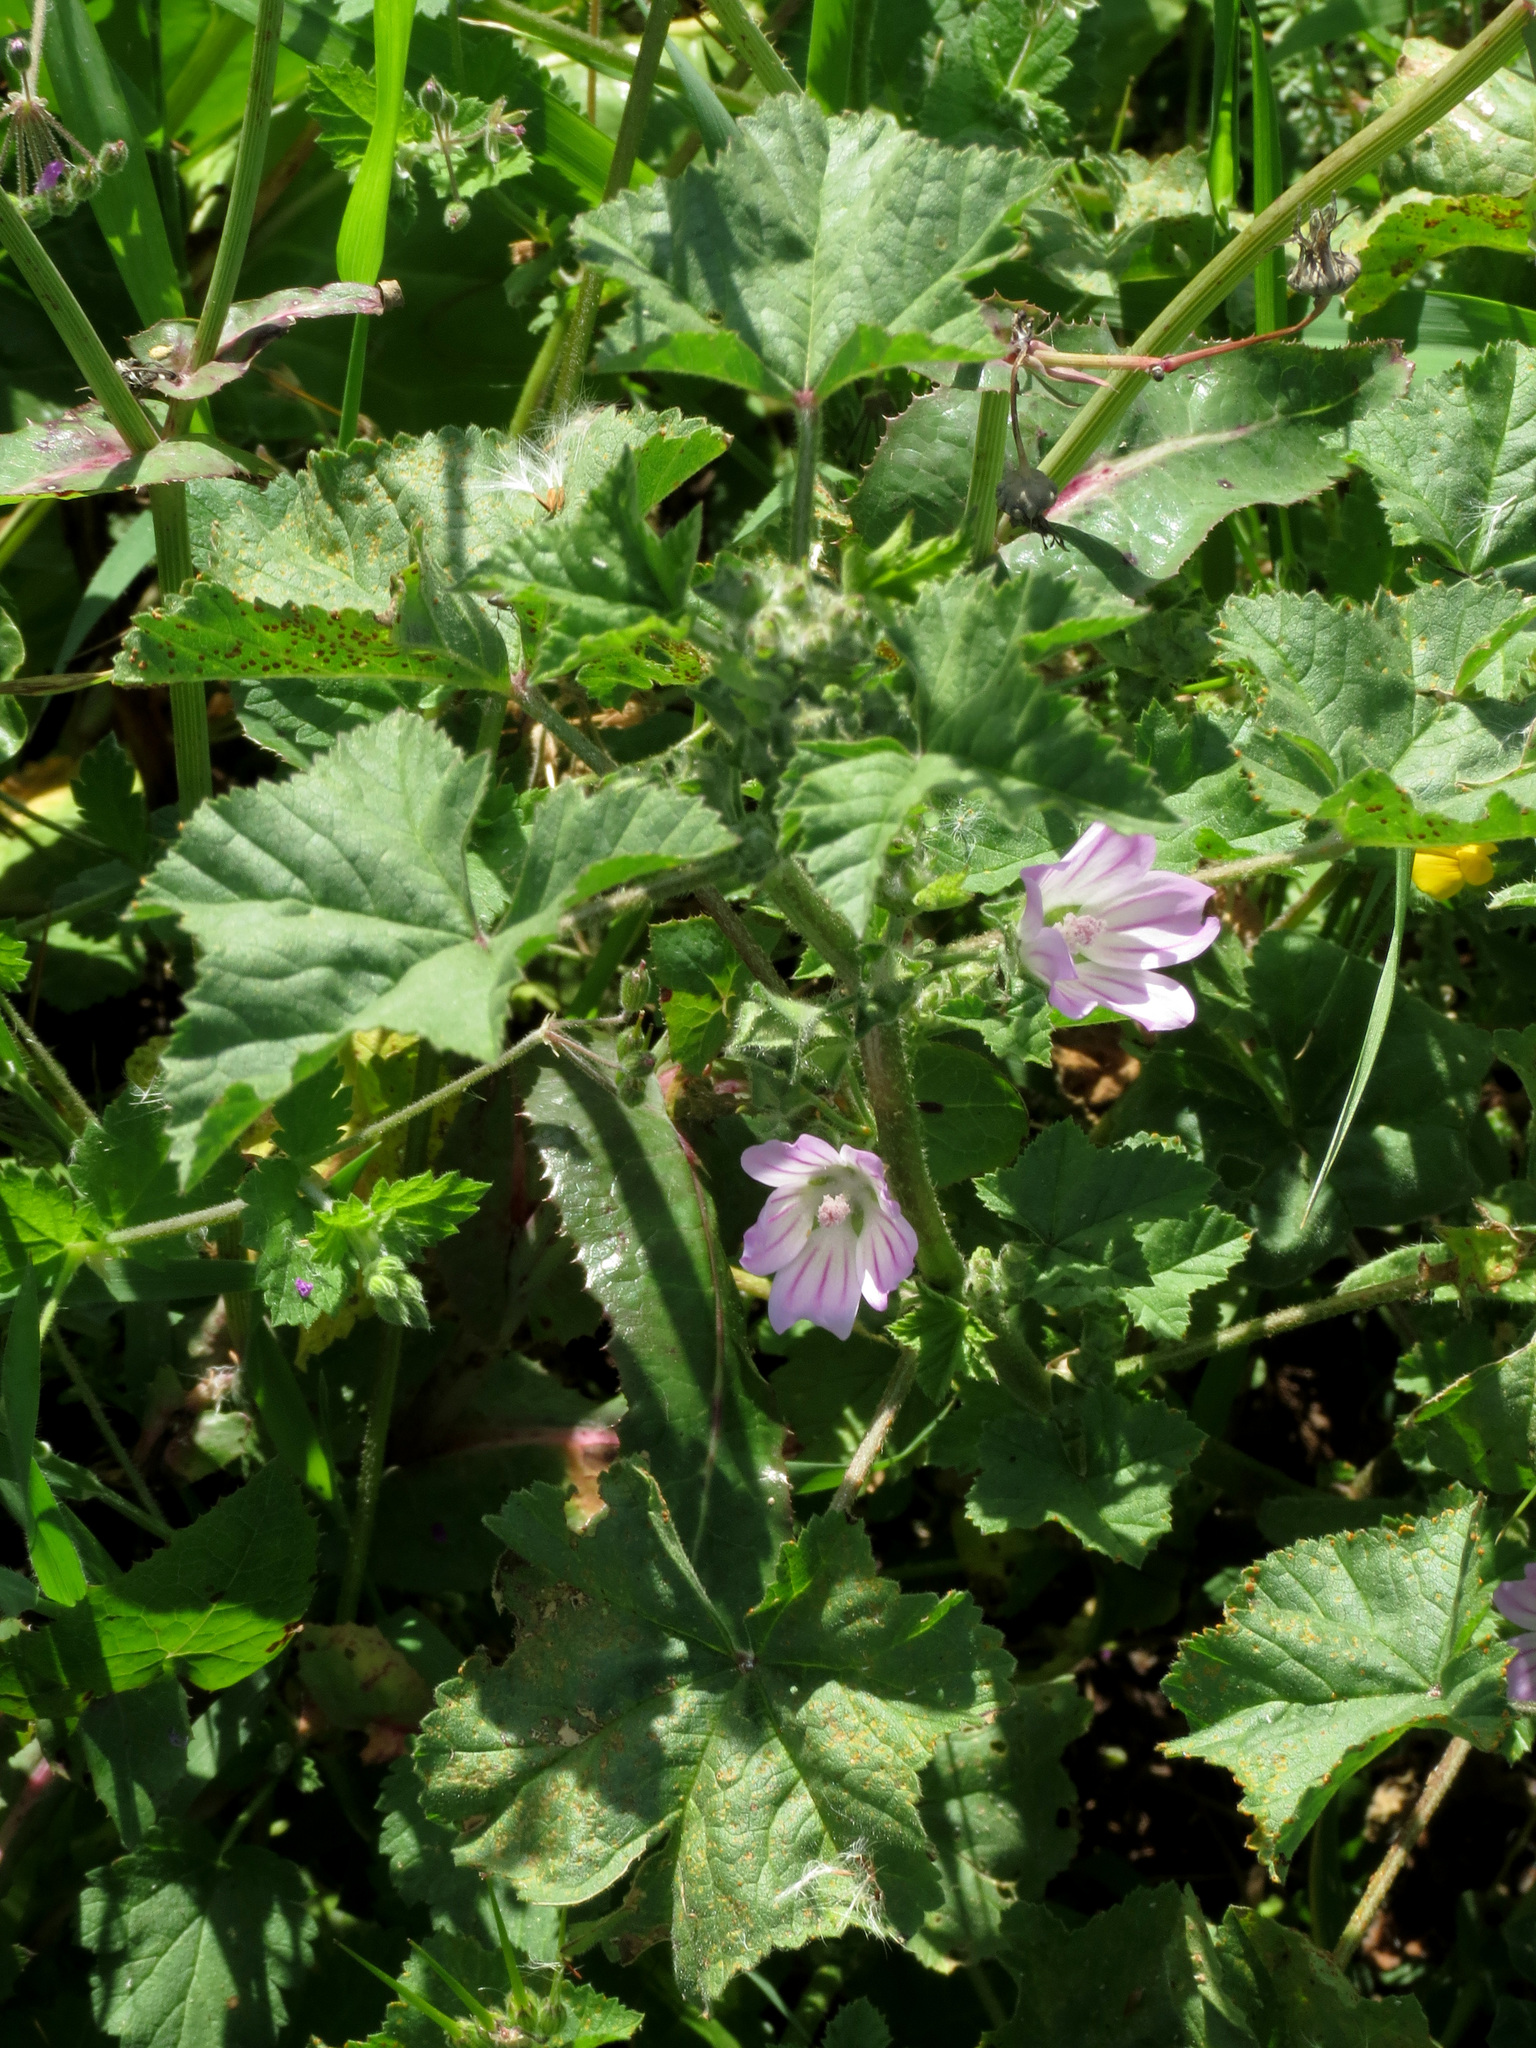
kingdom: Plantae
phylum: Tracheophyta
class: Magnoliopsida
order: Malvales
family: Malvaceae
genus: Malva
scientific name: Malva sylvestris
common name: Common mallow
